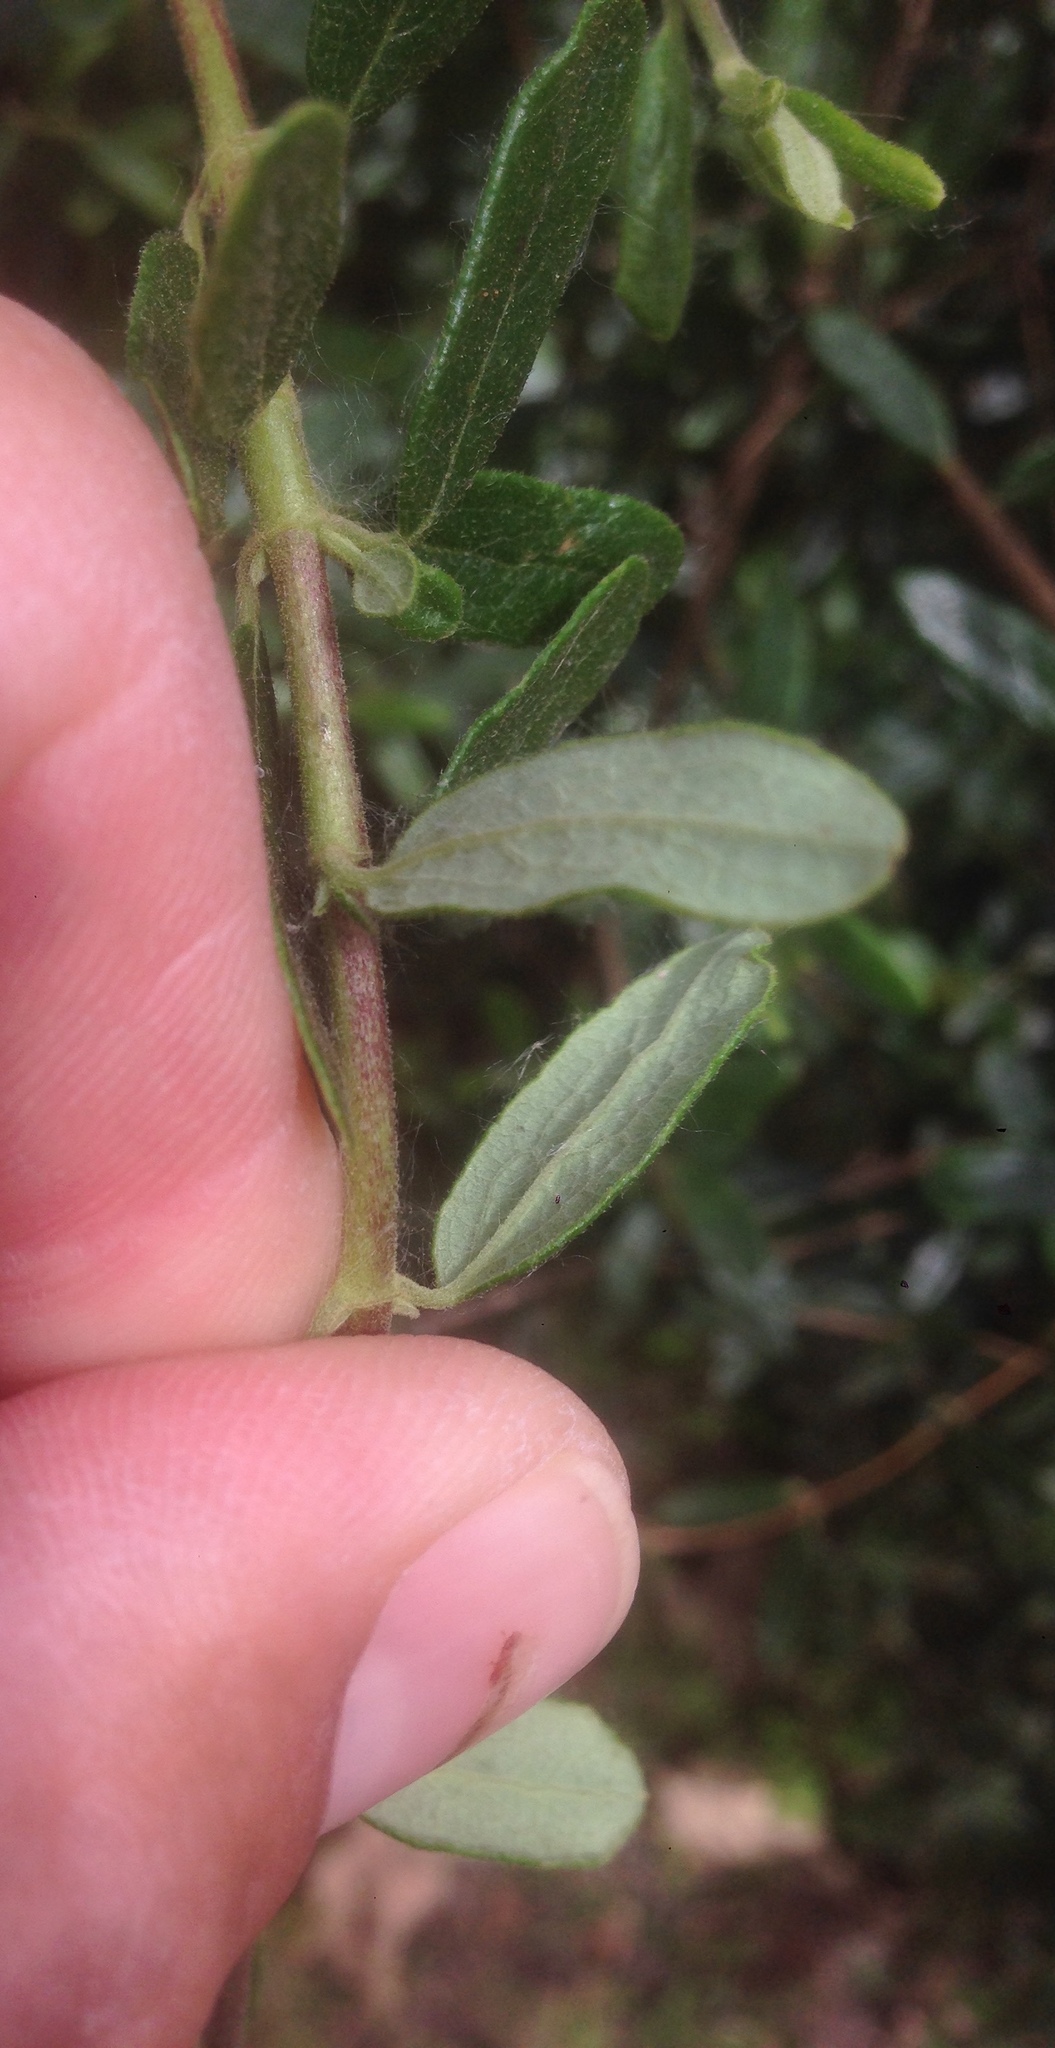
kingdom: Plantae
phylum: Tracheophyta
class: Magnoliopsida
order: Dipsacales
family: Caprifoliaceae
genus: Lonicera
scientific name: Lonicera subspicata
